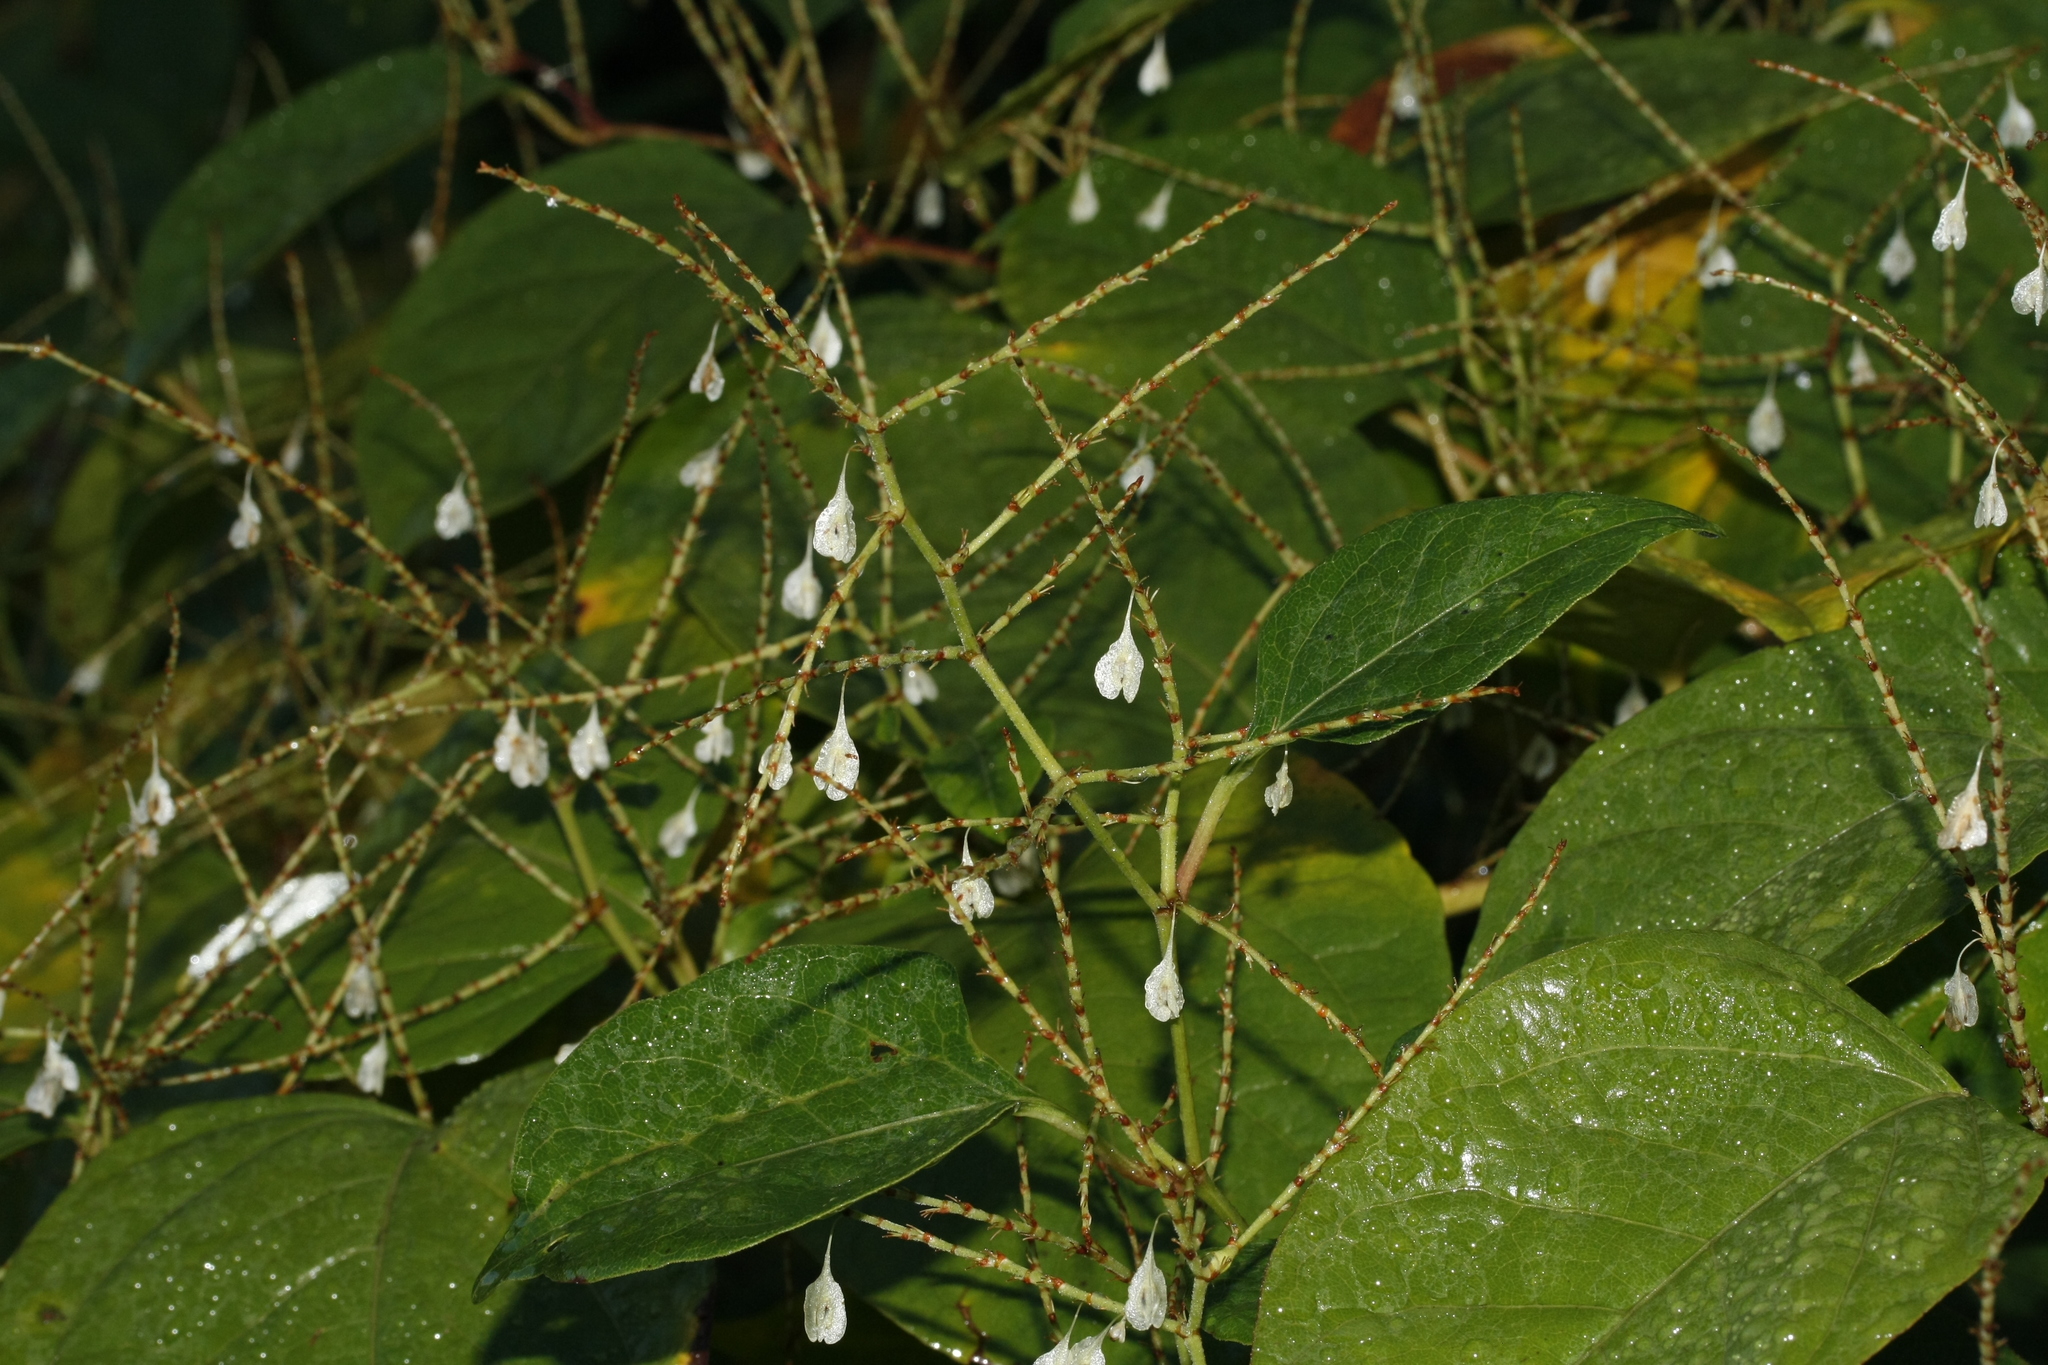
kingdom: Plantae
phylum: Tracheophyta
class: Magnoliopsida
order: Caryophyllales
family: Polygonaceae
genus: Reynoutria
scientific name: Reynoutria japonica
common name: Japanese knotweed
